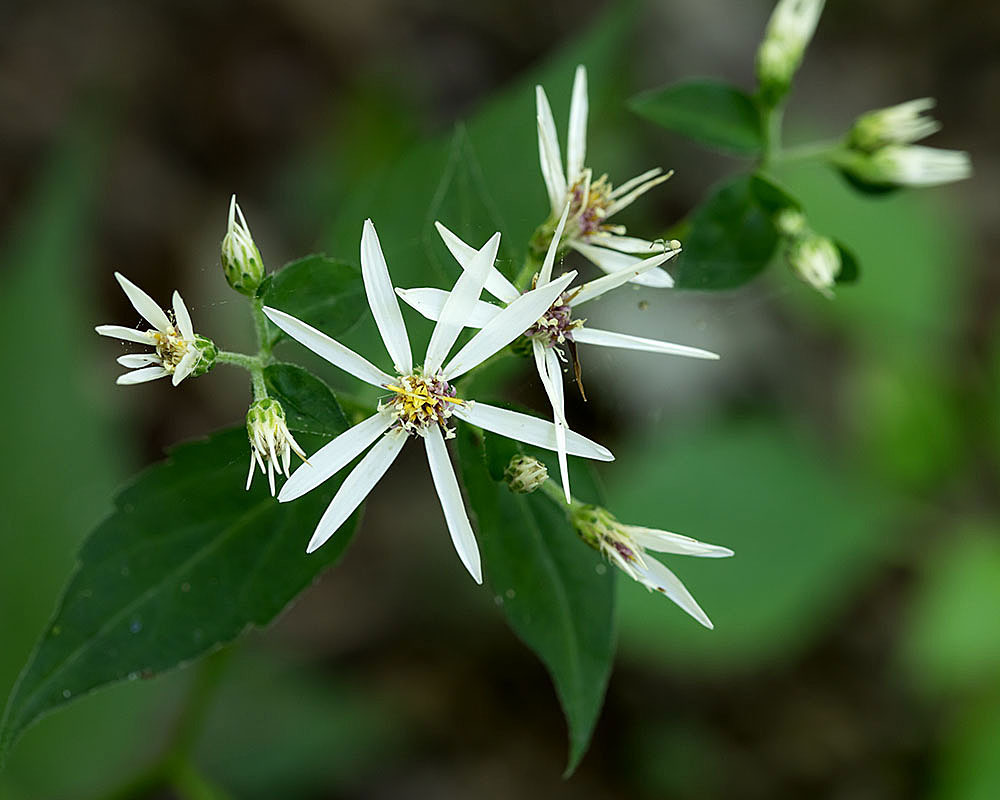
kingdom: Plantae
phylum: Tracheophyta
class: Magnoliopsida
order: Asterales
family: Asteraceae
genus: Eurybia
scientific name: Eurybia divaricata
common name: White wood aster
